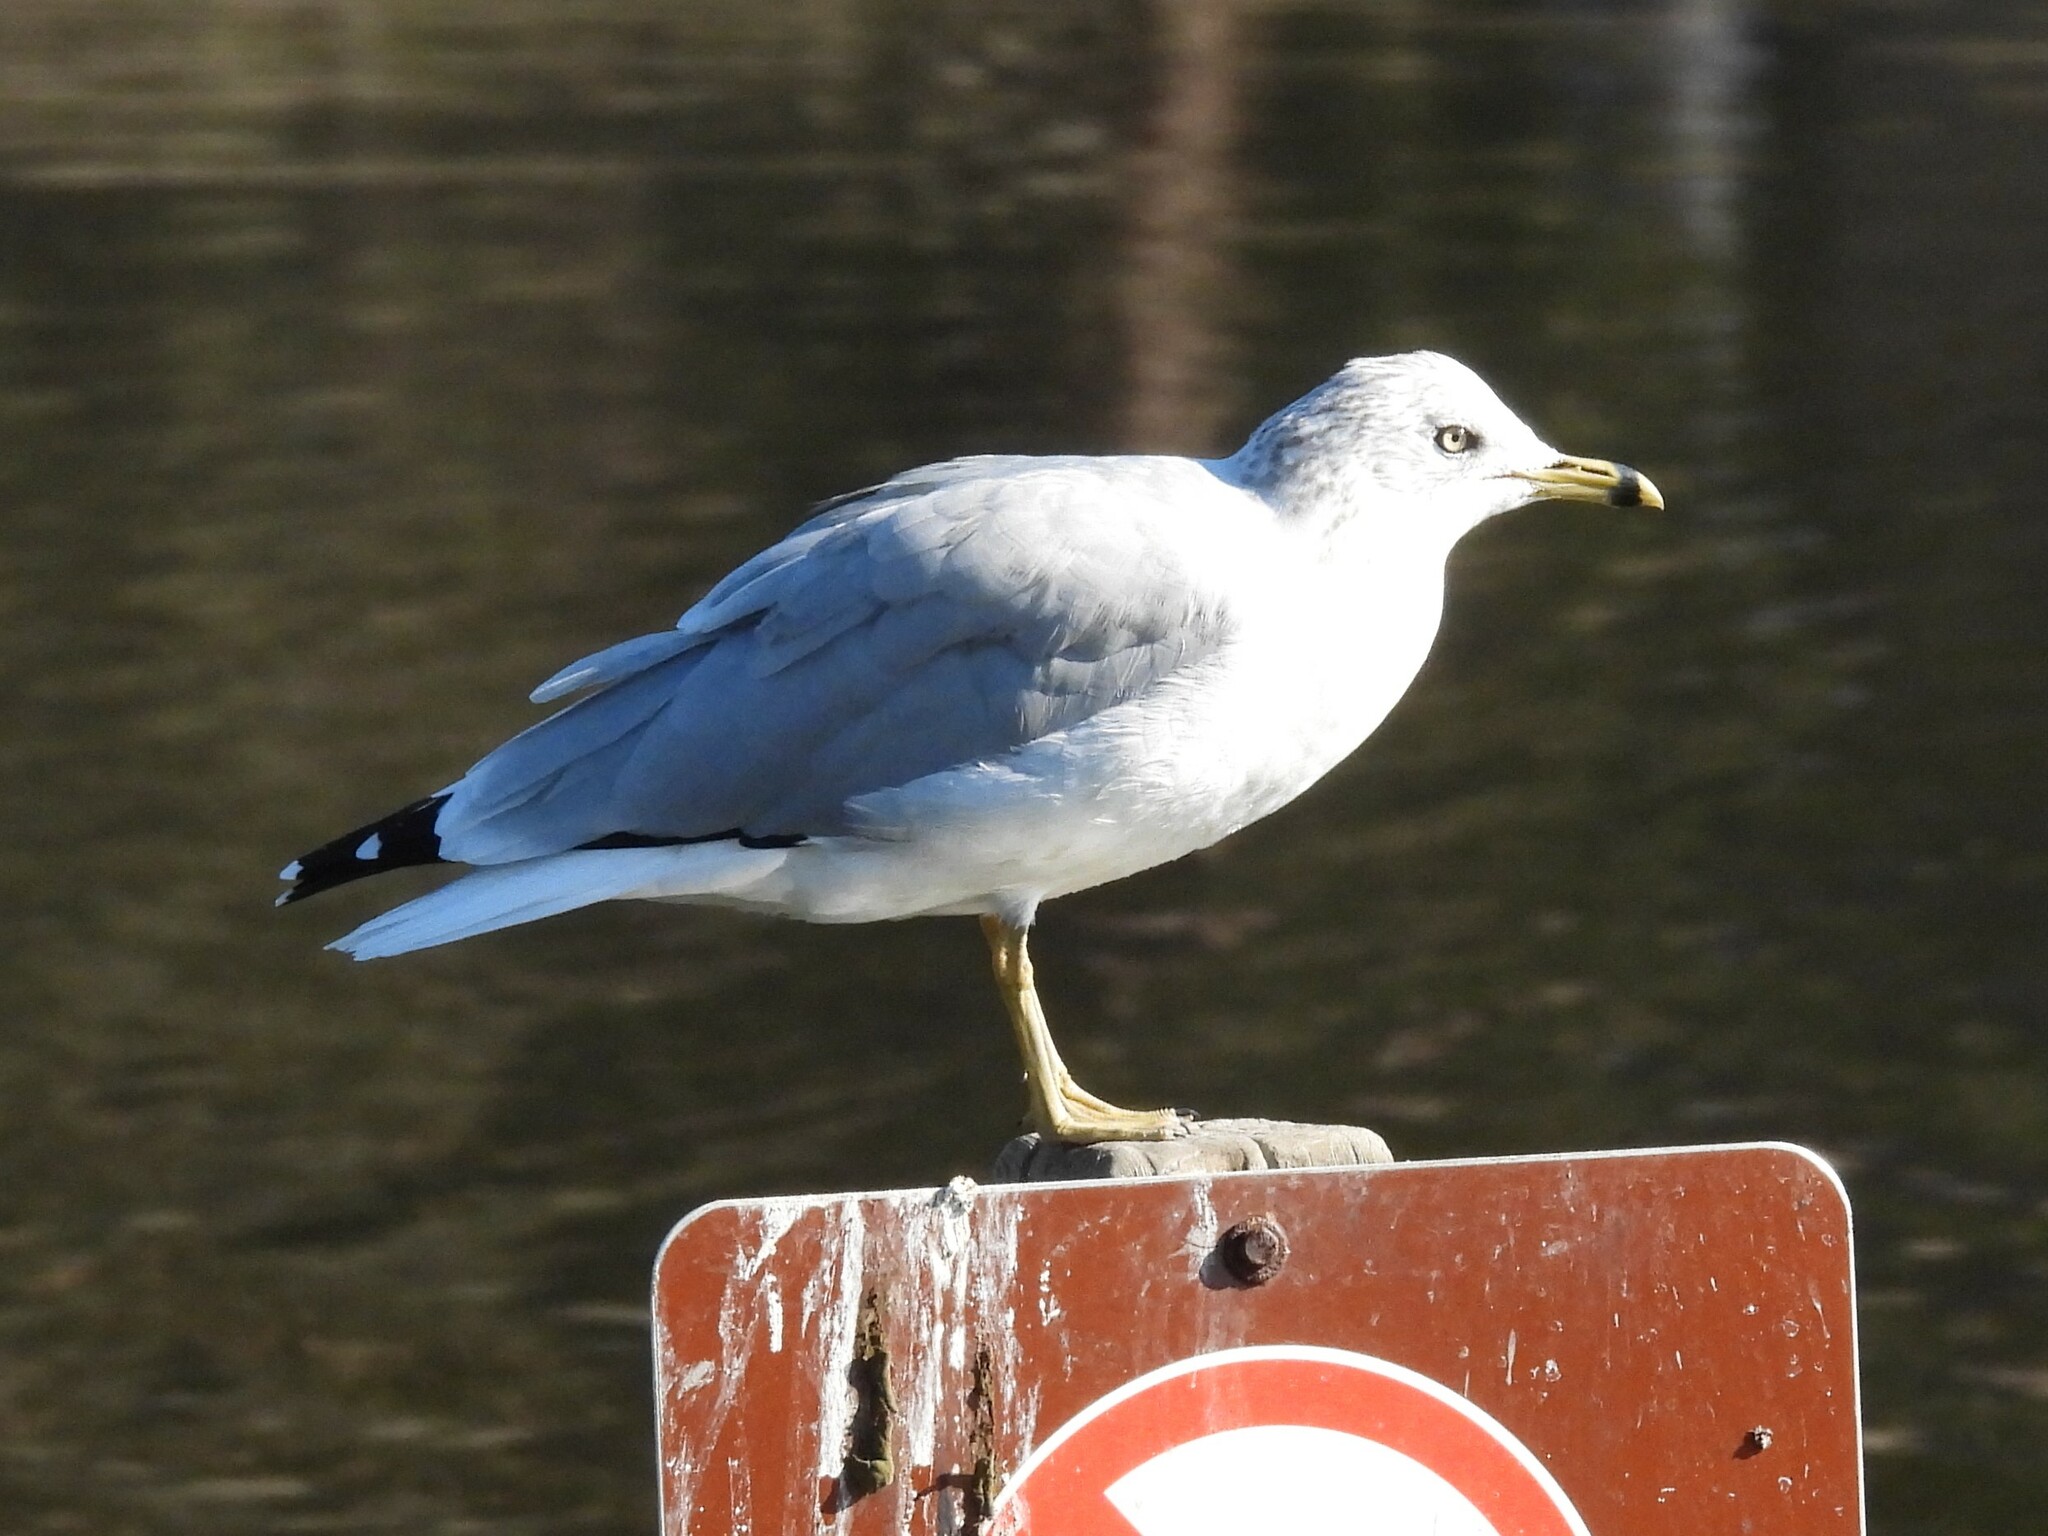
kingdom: Animalia
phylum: Chordata
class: Aves
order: Charadriiformes
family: Laridae
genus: Larus
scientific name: Larus delawarensis
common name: Ring-billed gull
